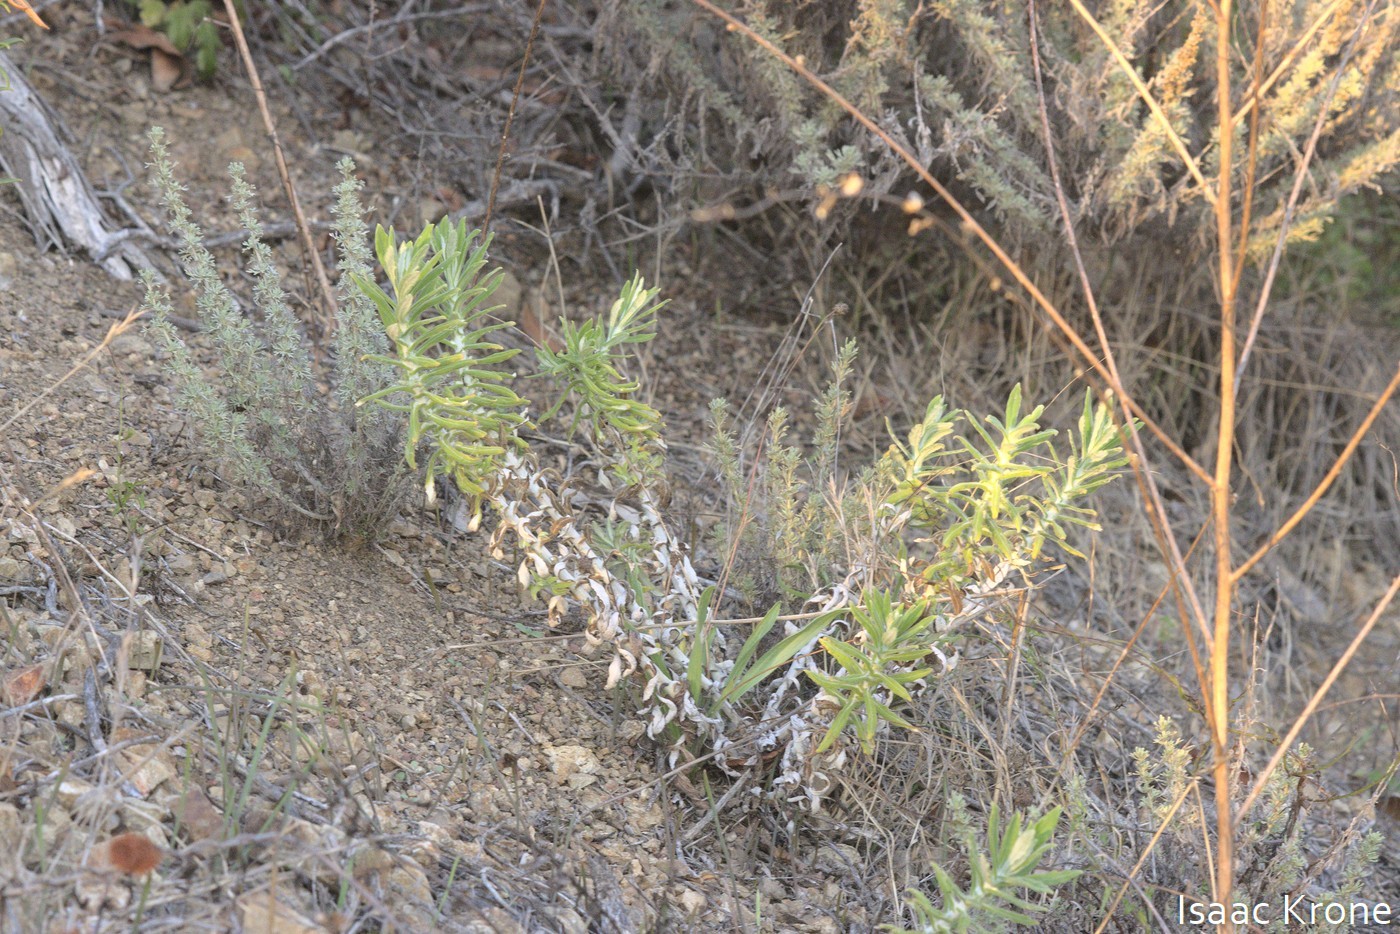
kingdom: Plantae
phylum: Tracheophyta
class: Magnoliopsida
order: Asterales
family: Asteraceae
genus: Pseudognaphalium
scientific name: Pseudognaphalium biolettii
